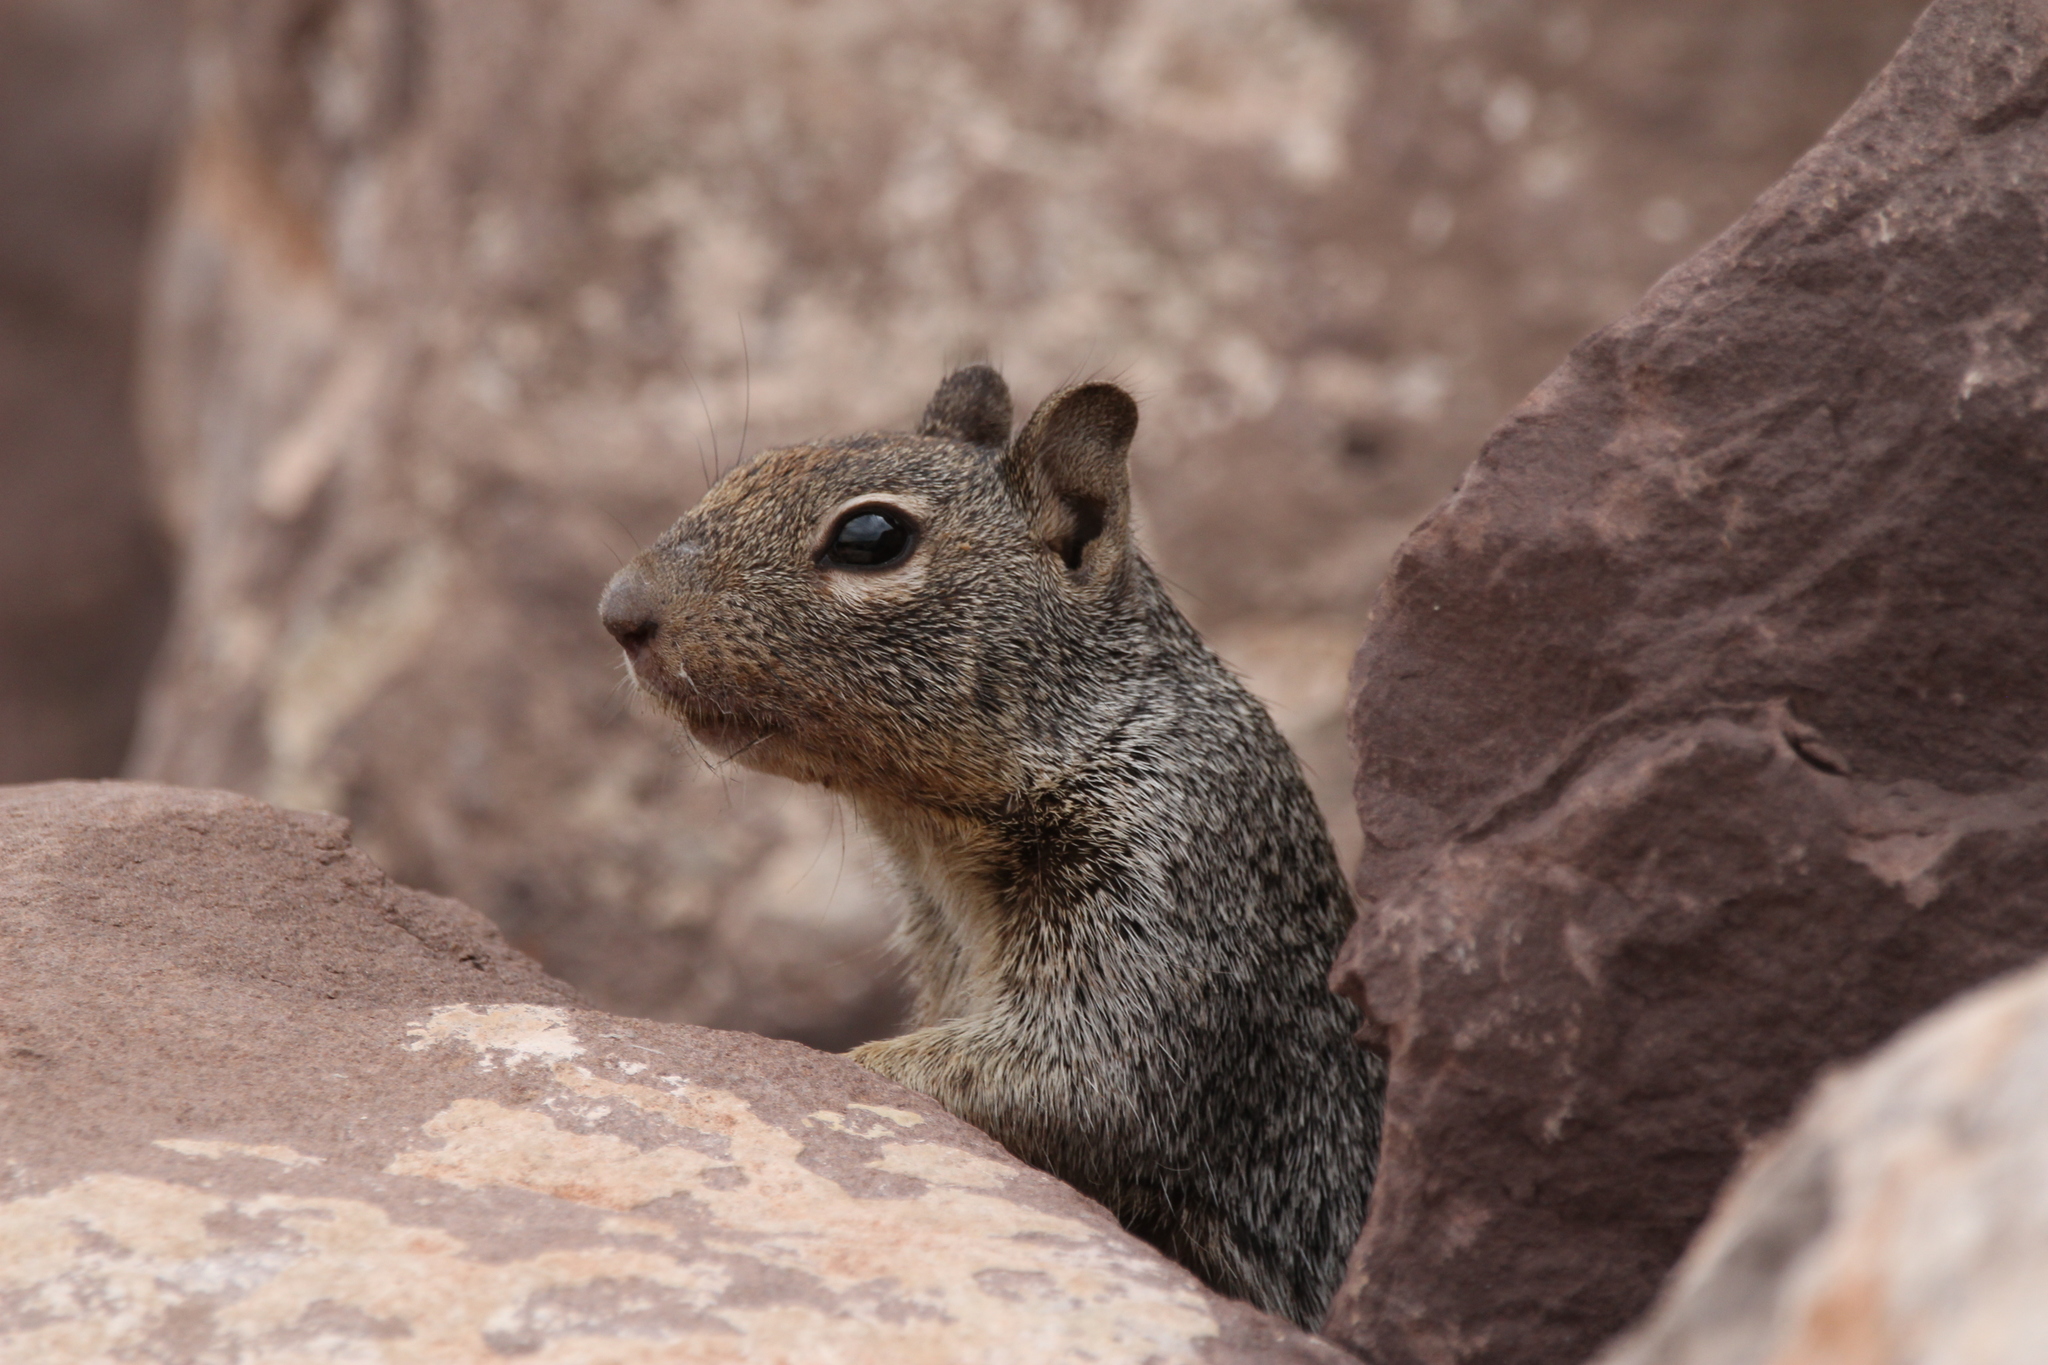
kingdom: Animalia
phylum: Chordata
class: Mammalia
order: Rodentia
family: Sciuridae
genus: Otospermophilus
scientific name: Otospermophilus variegatus
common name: Rock squirrel
